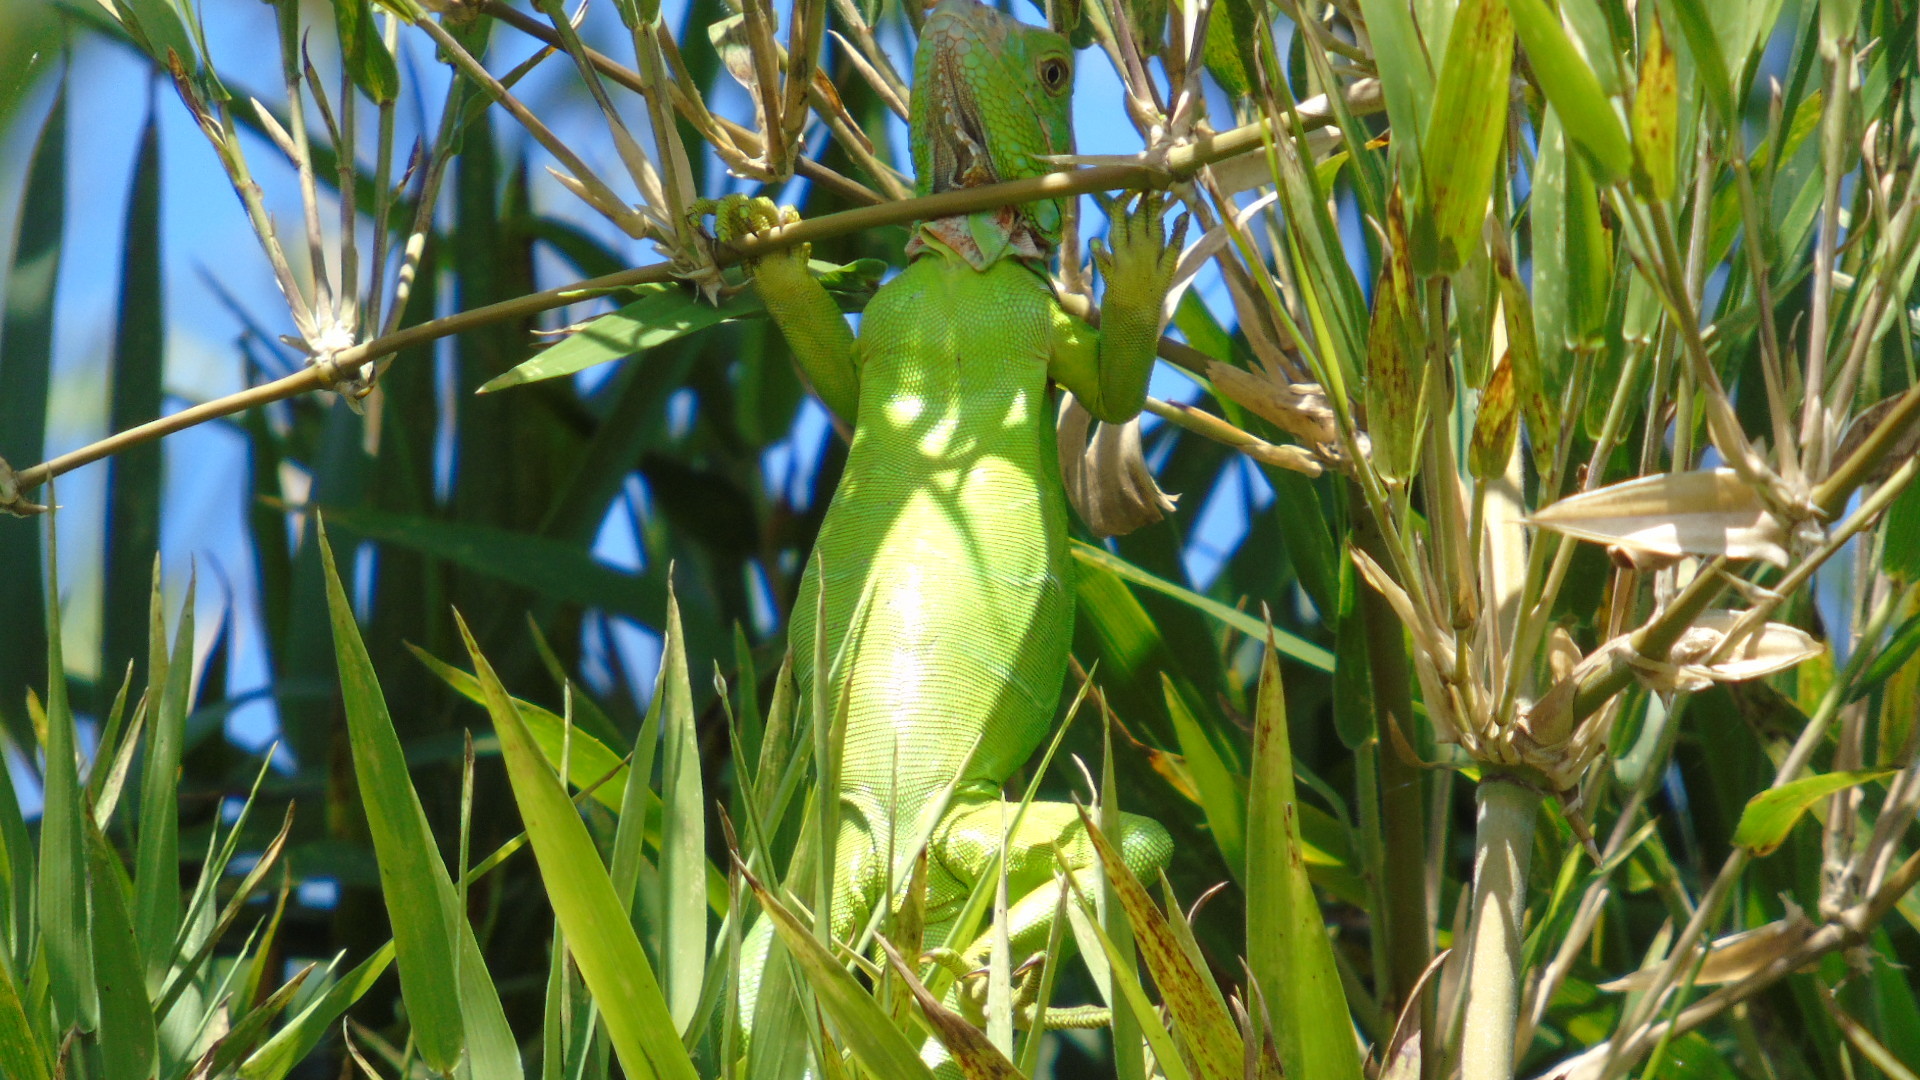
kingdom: Animalia
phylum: Chordata
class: Squamata
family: Iguanidae
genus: Iguana
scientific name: Iguana iguana
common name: Green iguana
